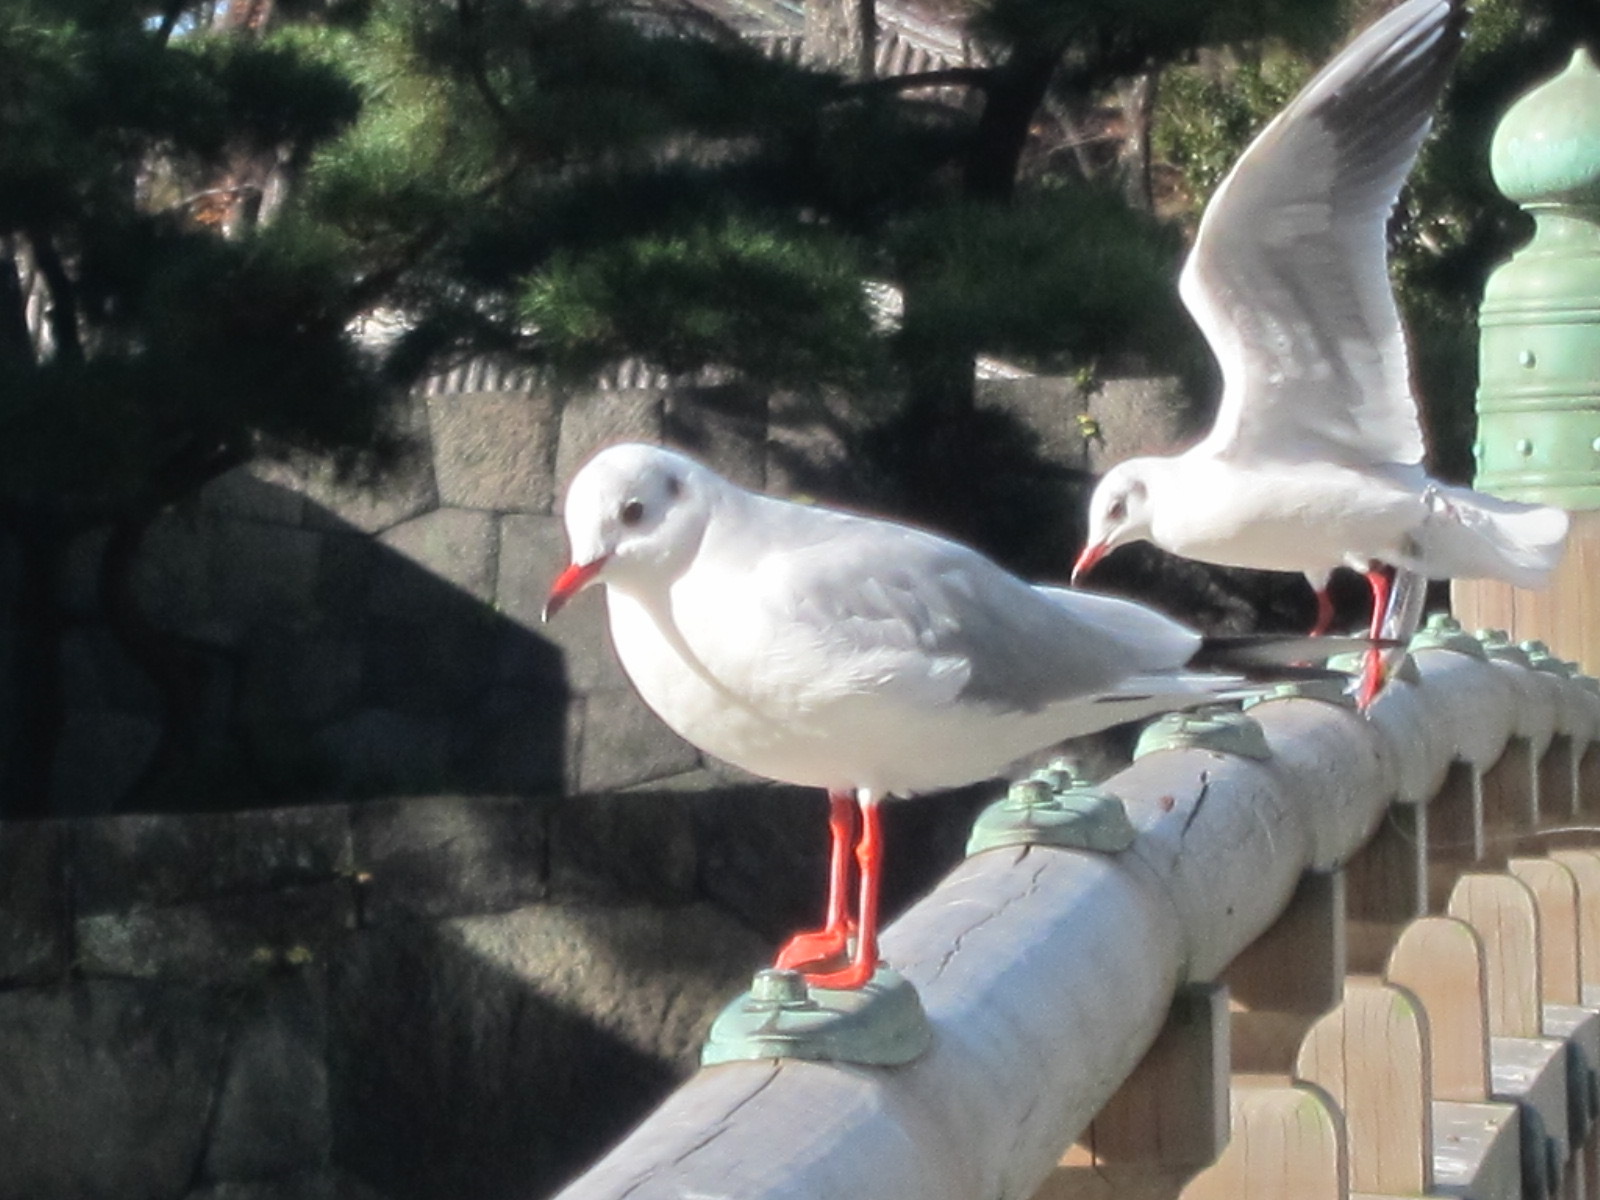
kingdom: Animalia
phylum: Chordata
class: Aves
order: Charadriiformes
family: Laridae
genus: Chroicocephalus
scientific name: Chroicocephalus ridibundus
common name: Black-headed gull
